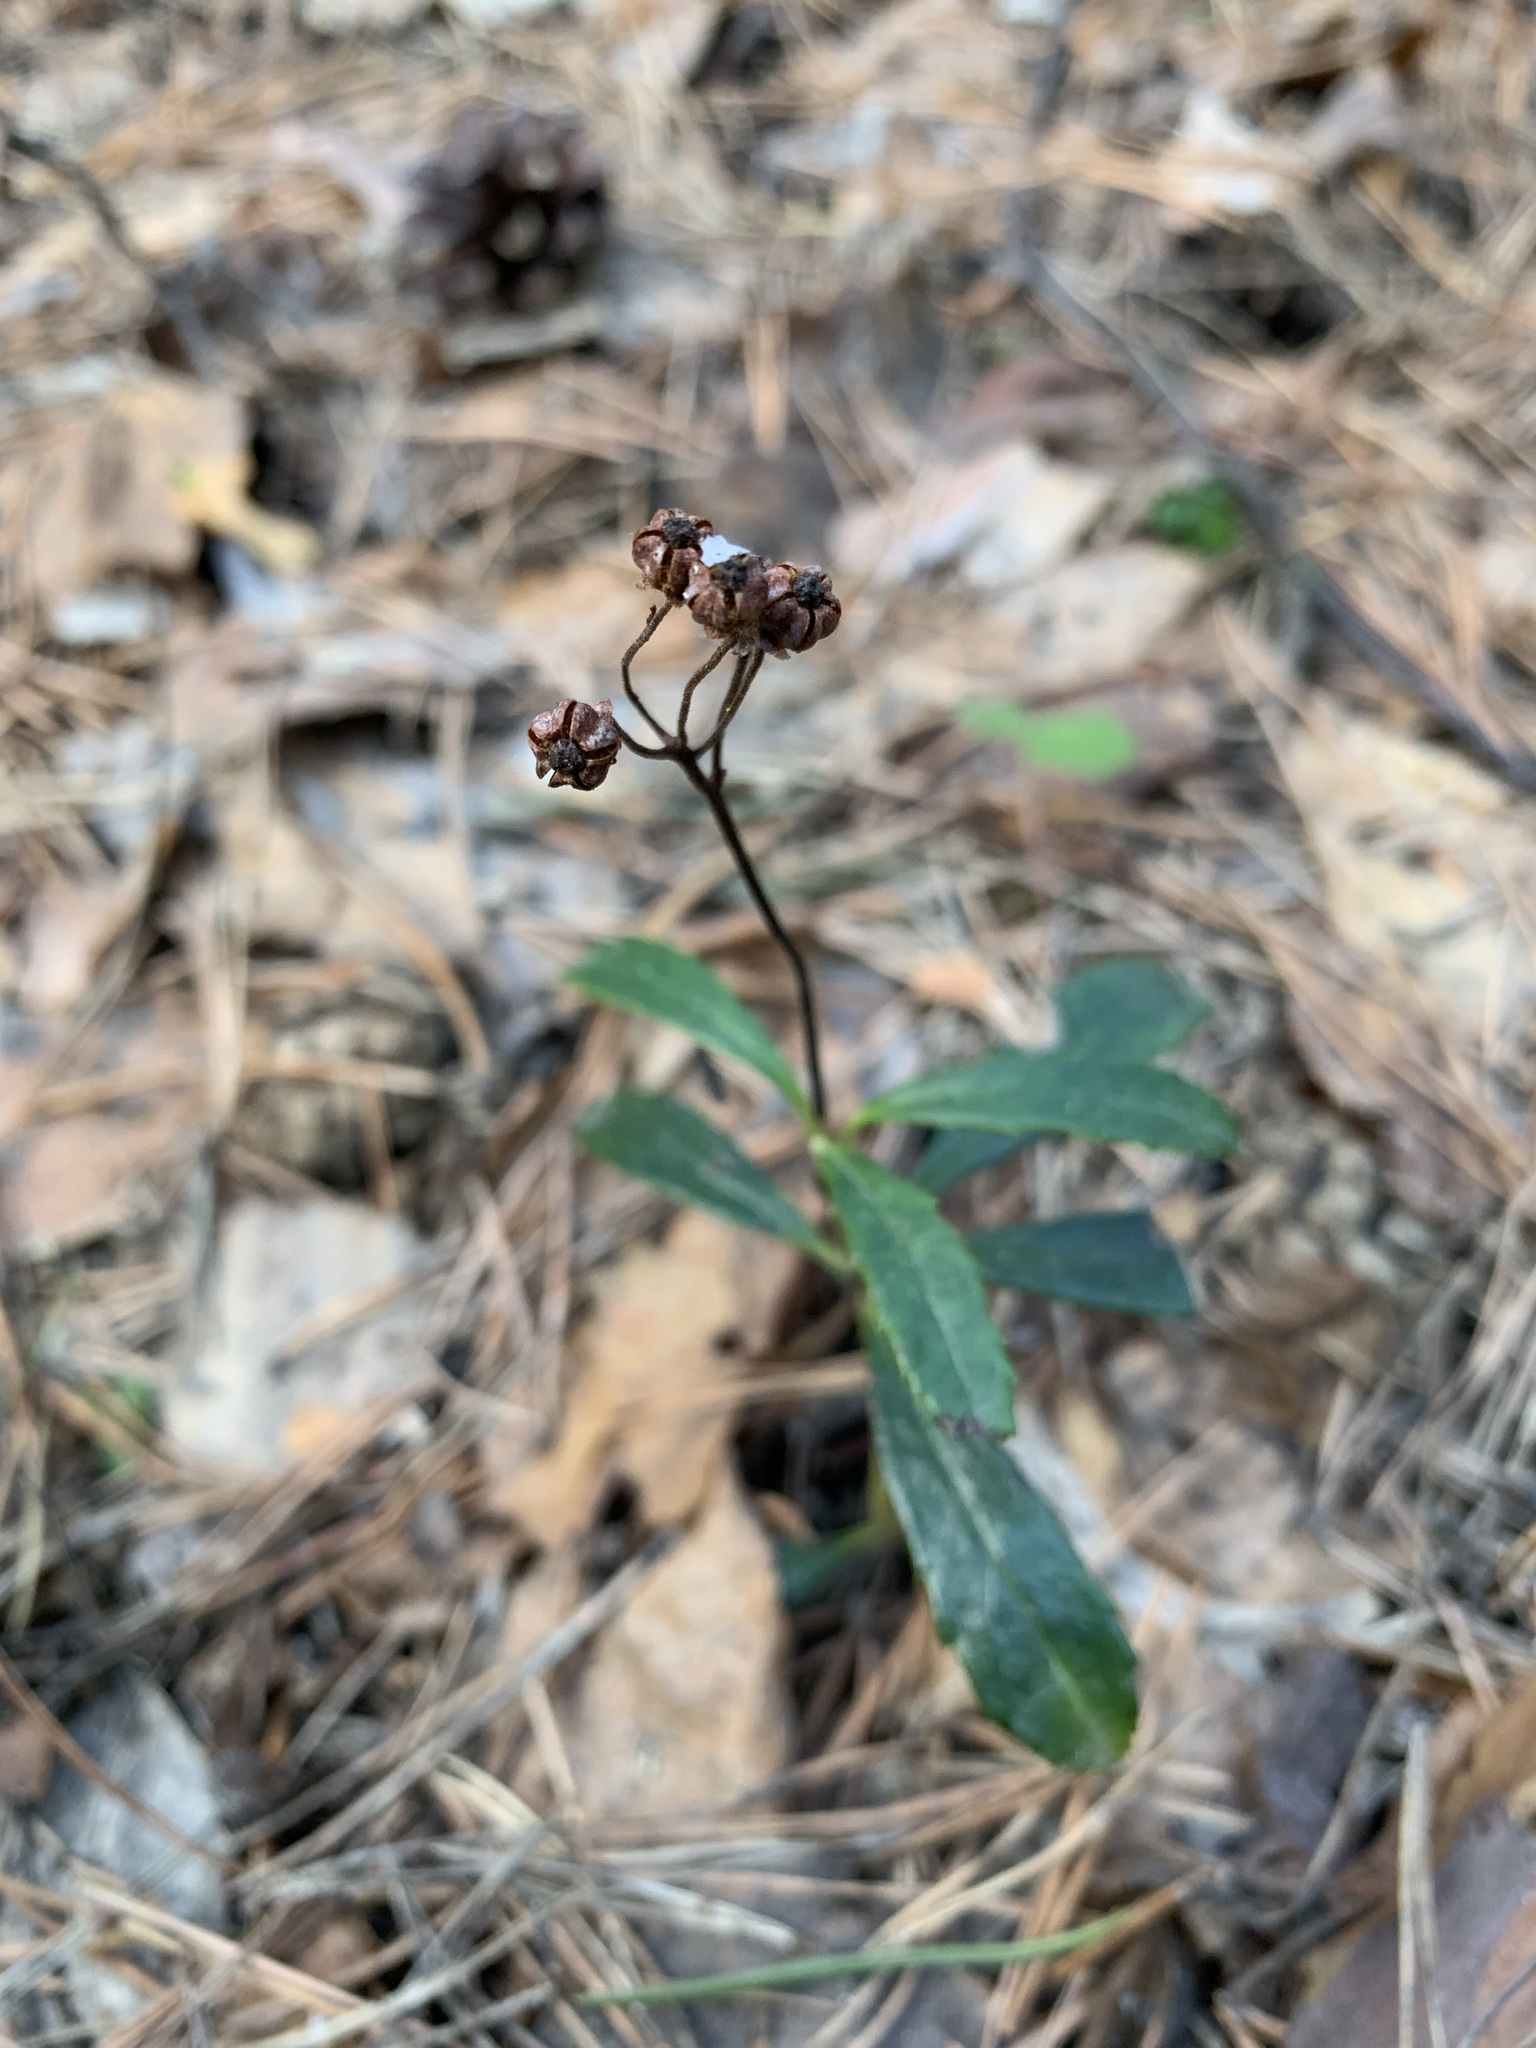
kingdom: Plantae
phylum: Tracheophyta
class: Magnoliopsida
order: Ericales
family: Ericaceae
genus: Chimaphila
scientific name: Chimaphila umbellata
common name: Pipsissewa
